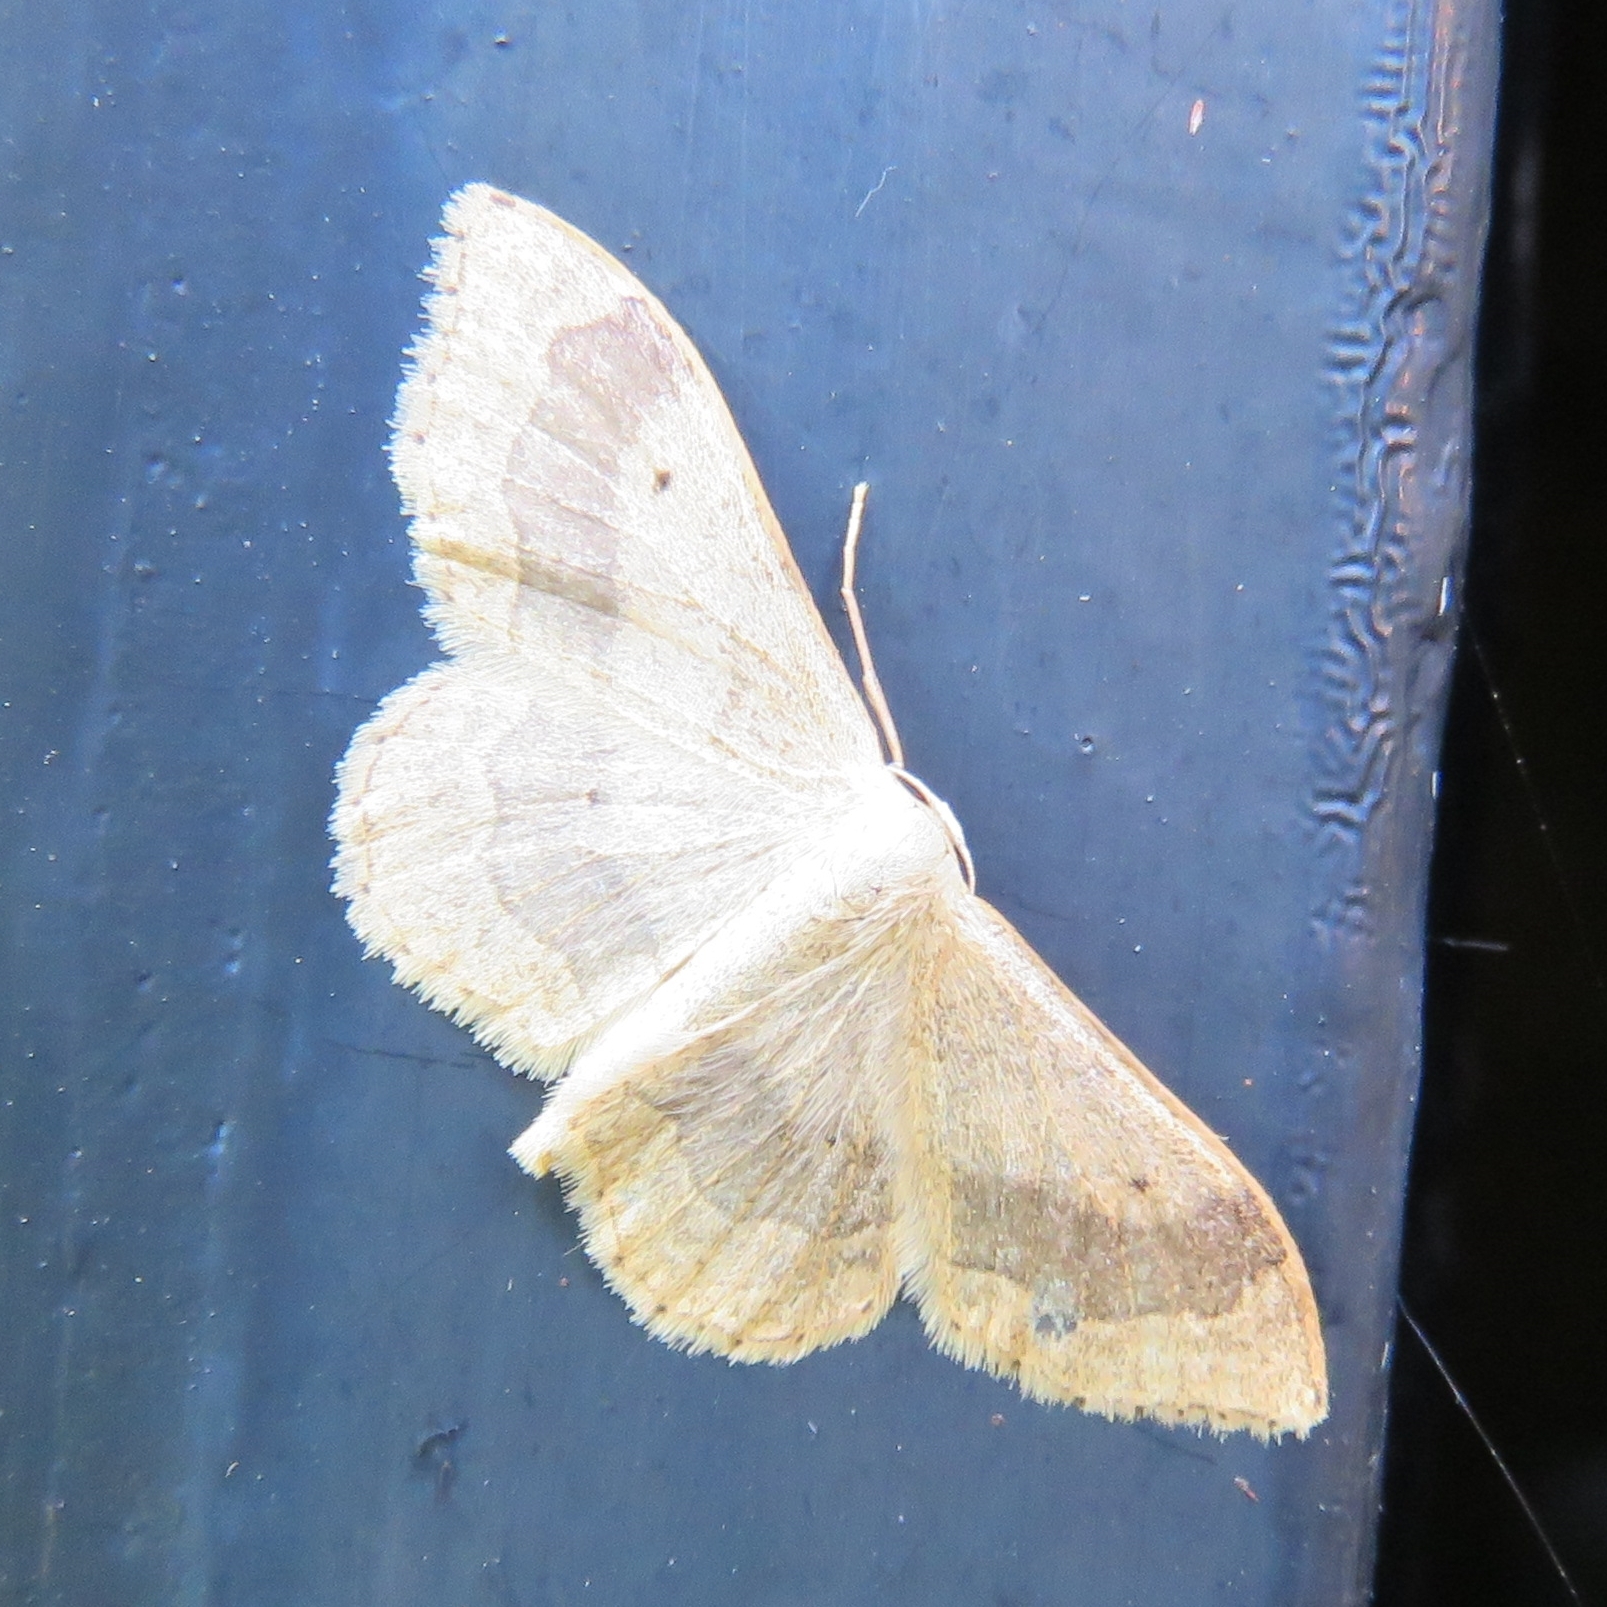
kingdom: Animalia
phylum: Arthropoda
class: Insecta
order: Lepidoptera
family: Geometridae
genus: Idaea
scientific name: Idaea aversata
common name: Riband wave
